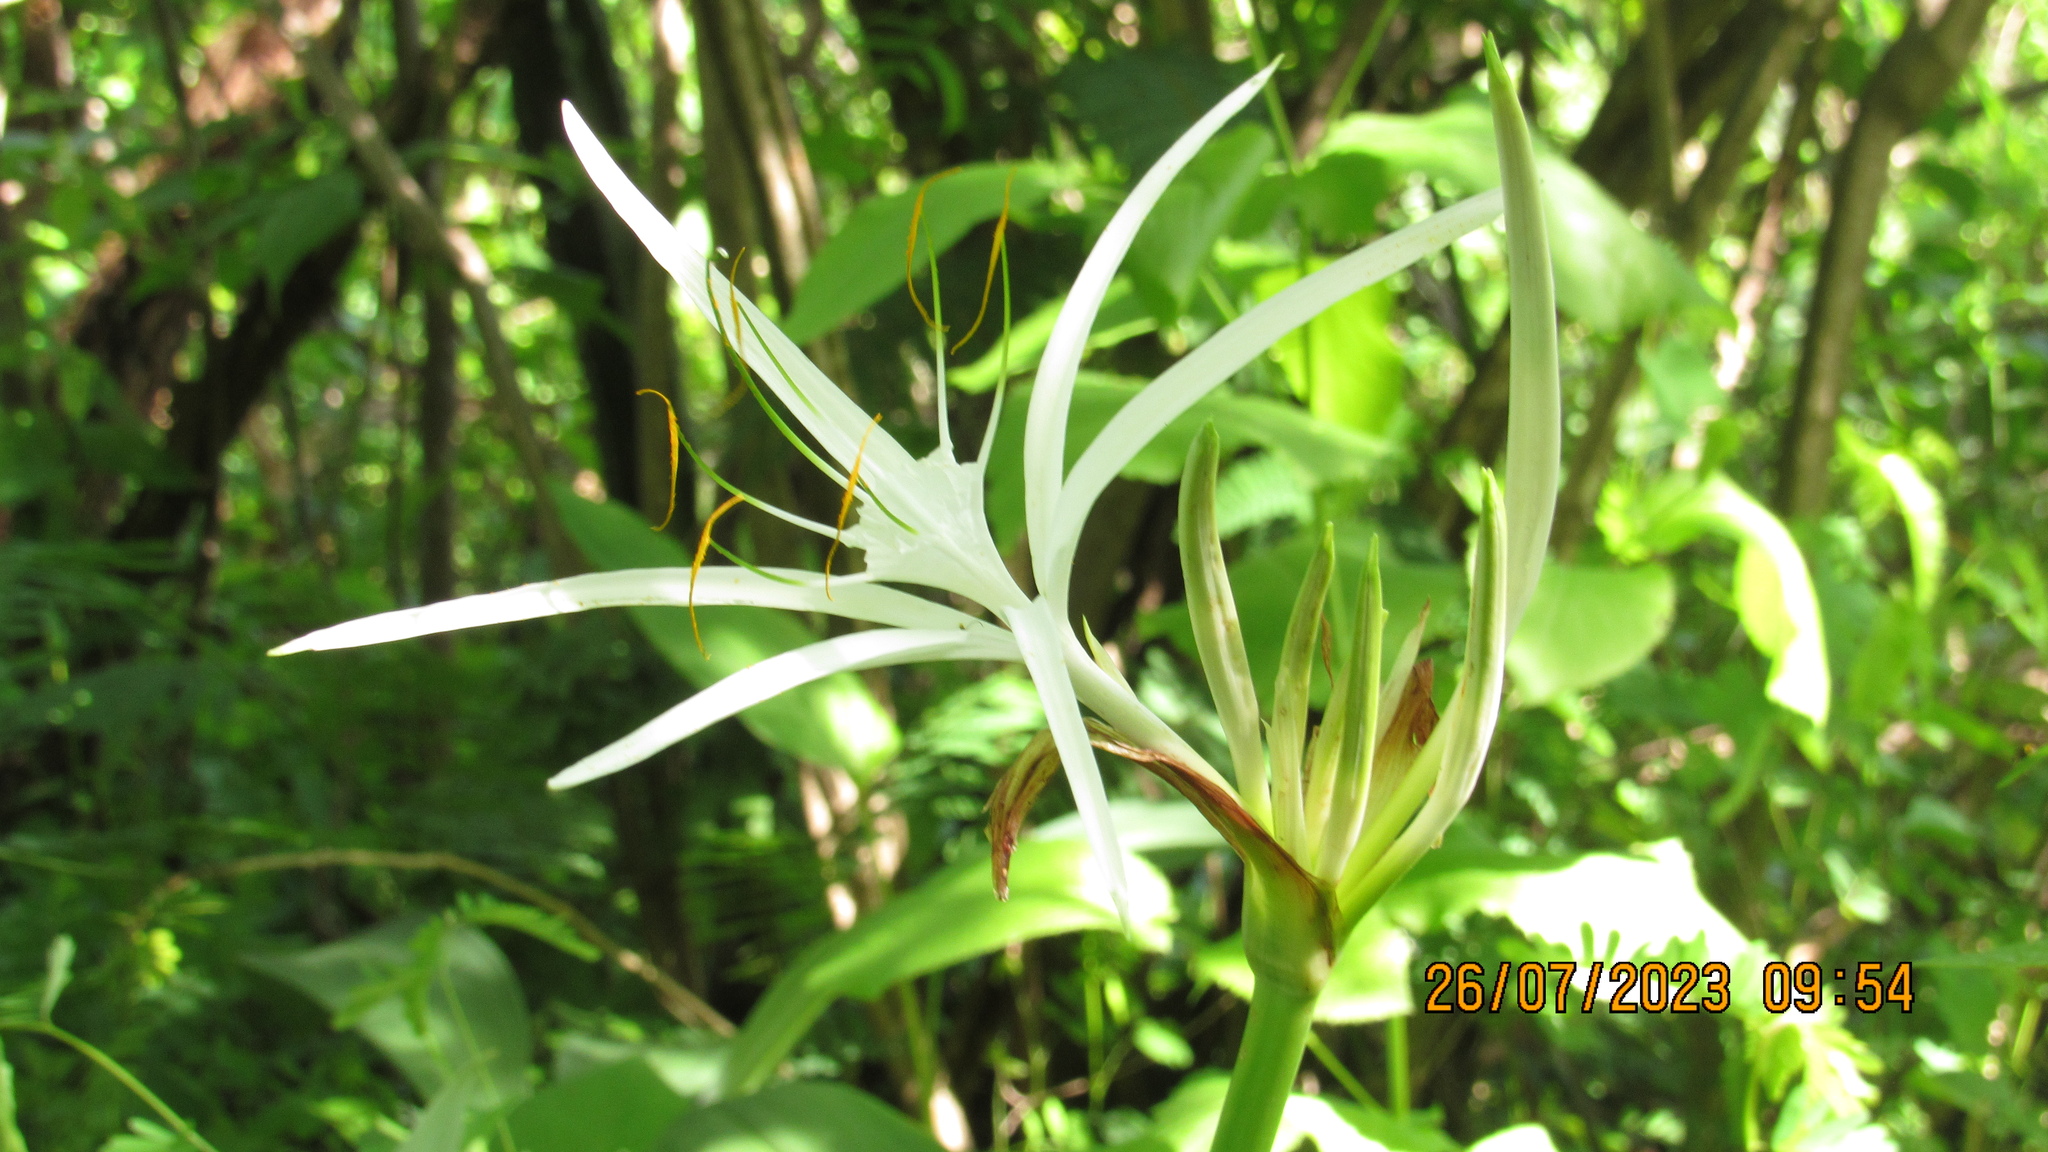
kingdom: Plantae
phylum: Tracheophyta
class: Liliopsida
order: Asparagales
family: Amaryllidaceae
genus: Hymenocallis
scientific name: Hymenocallis littoralis
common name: Beach spiderlily
